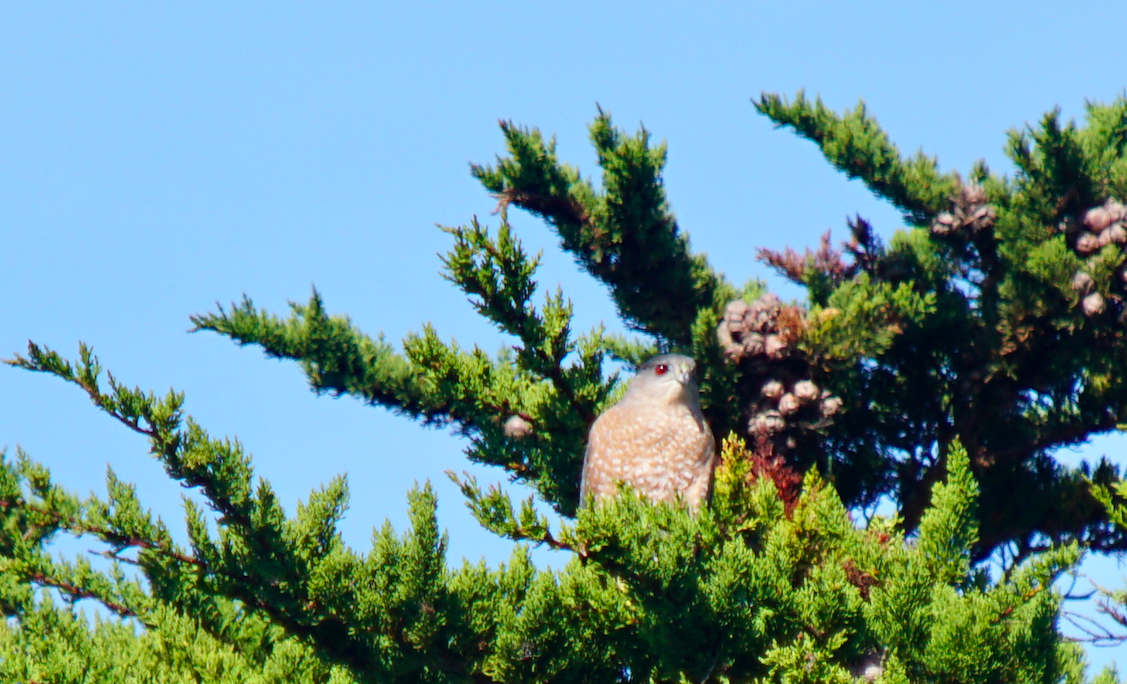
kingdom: Animalia
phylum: Chordata
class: Aves
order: Accipitriformes
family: Accipitridae
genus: Accipiter
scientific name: Accipiter cooperii
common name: Cooper's hawk
